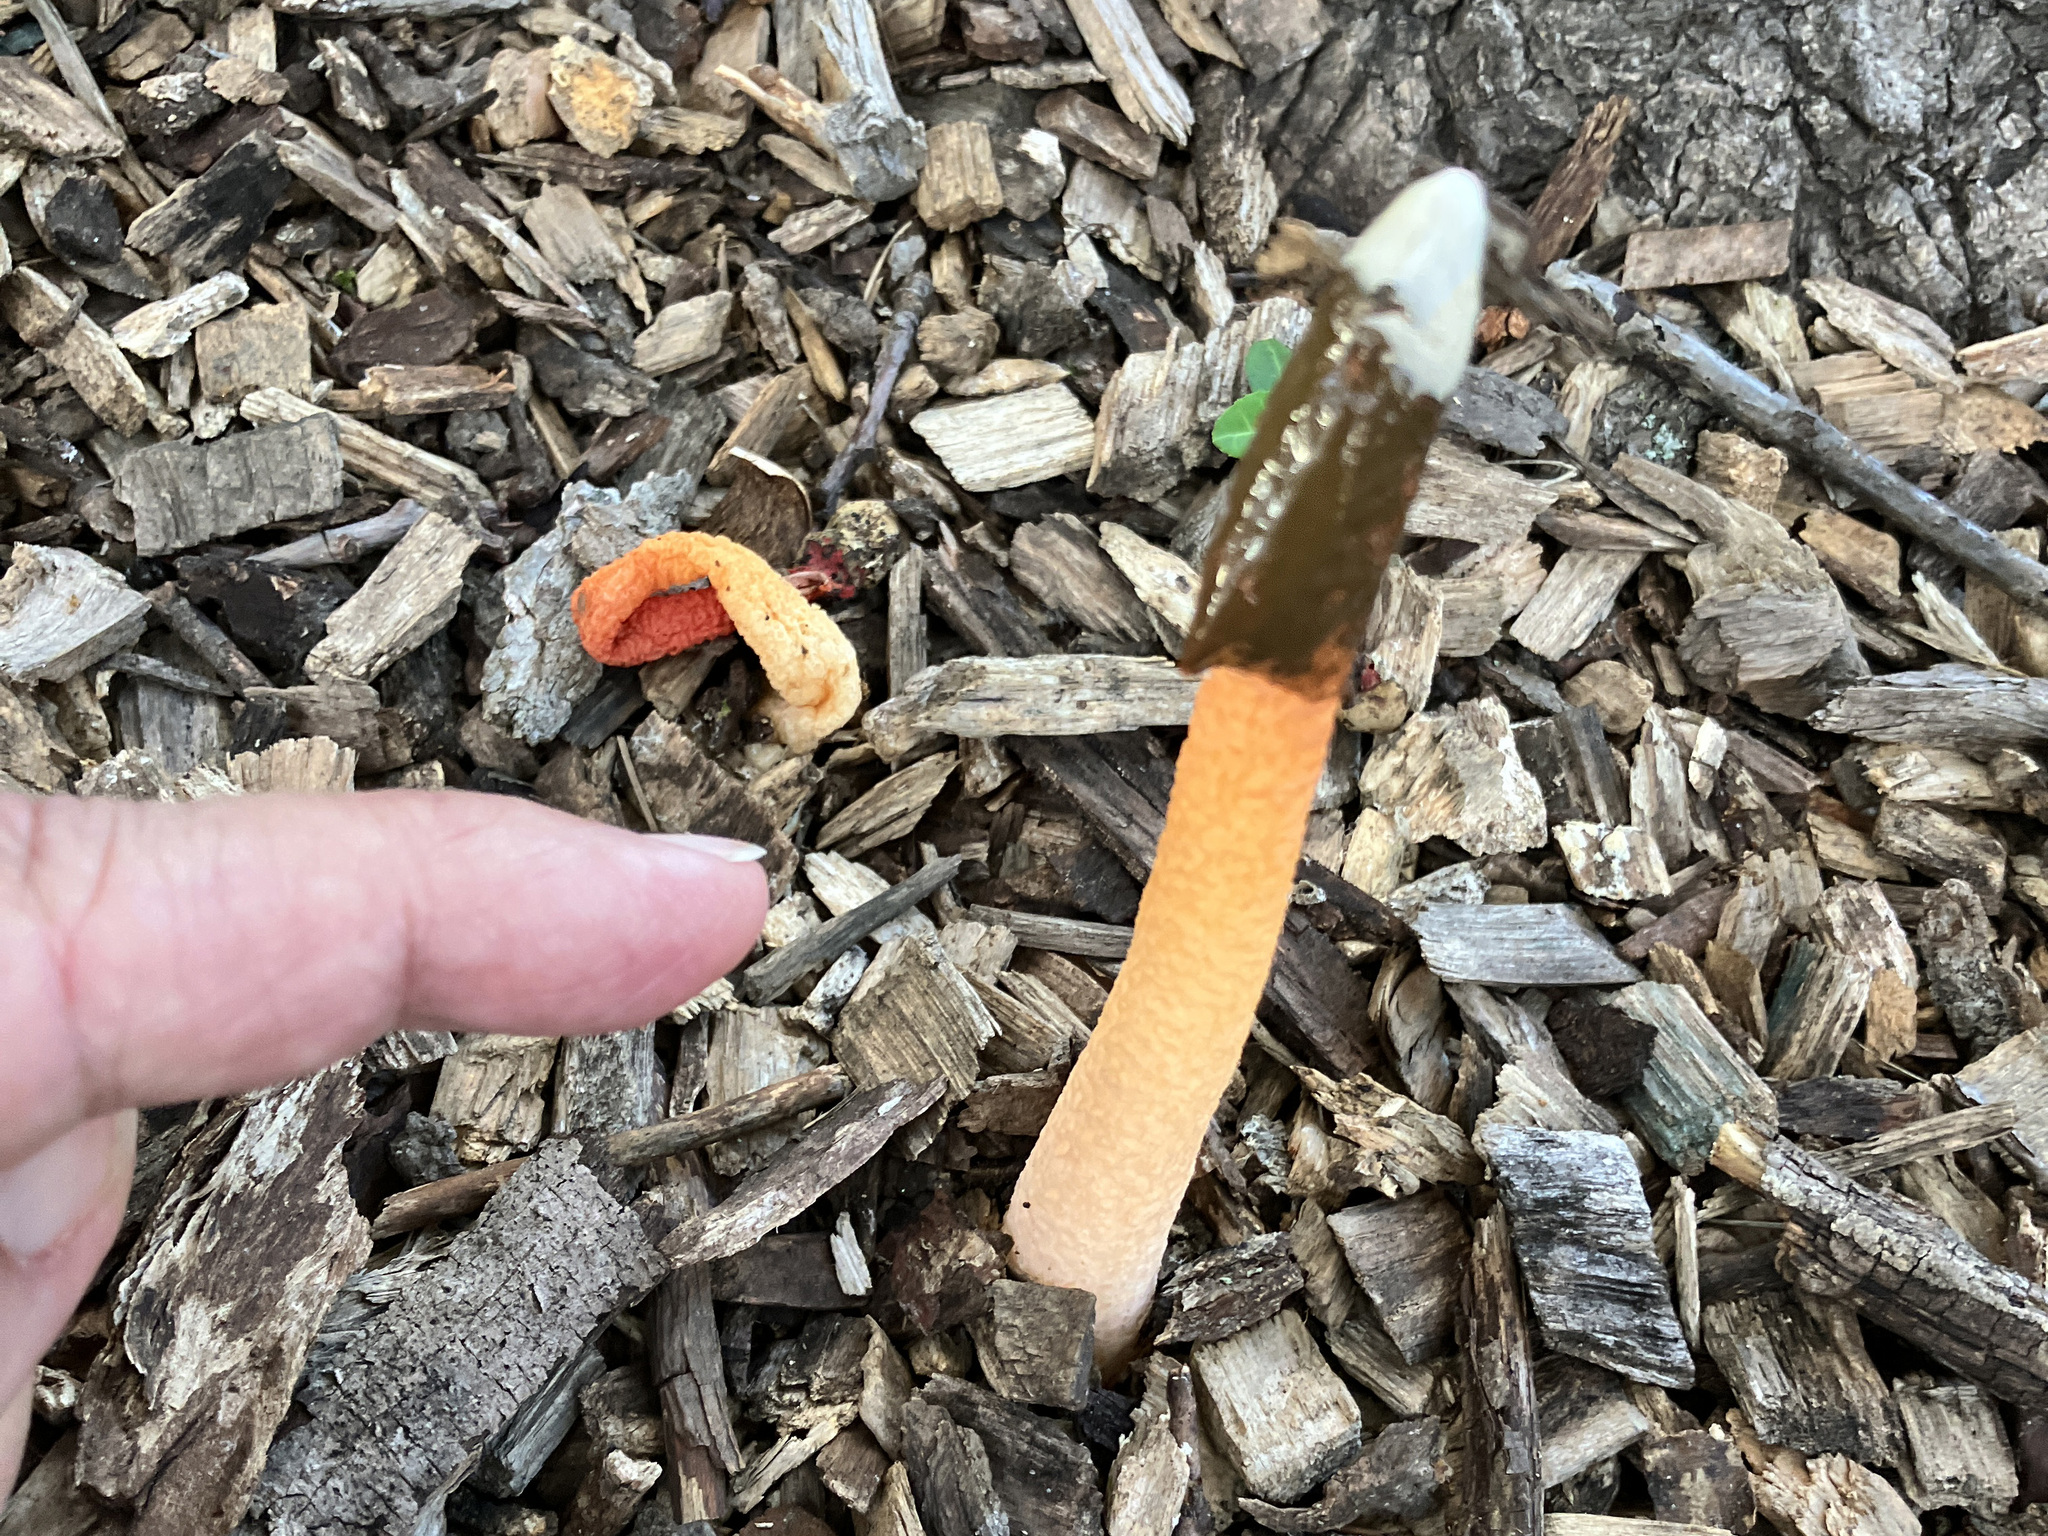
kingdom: Fungi
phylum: Basidiomycota
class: Agaricomycetes
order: Phallales
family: Phallaceae
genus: Phallus
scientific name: Phallus rubicundus
